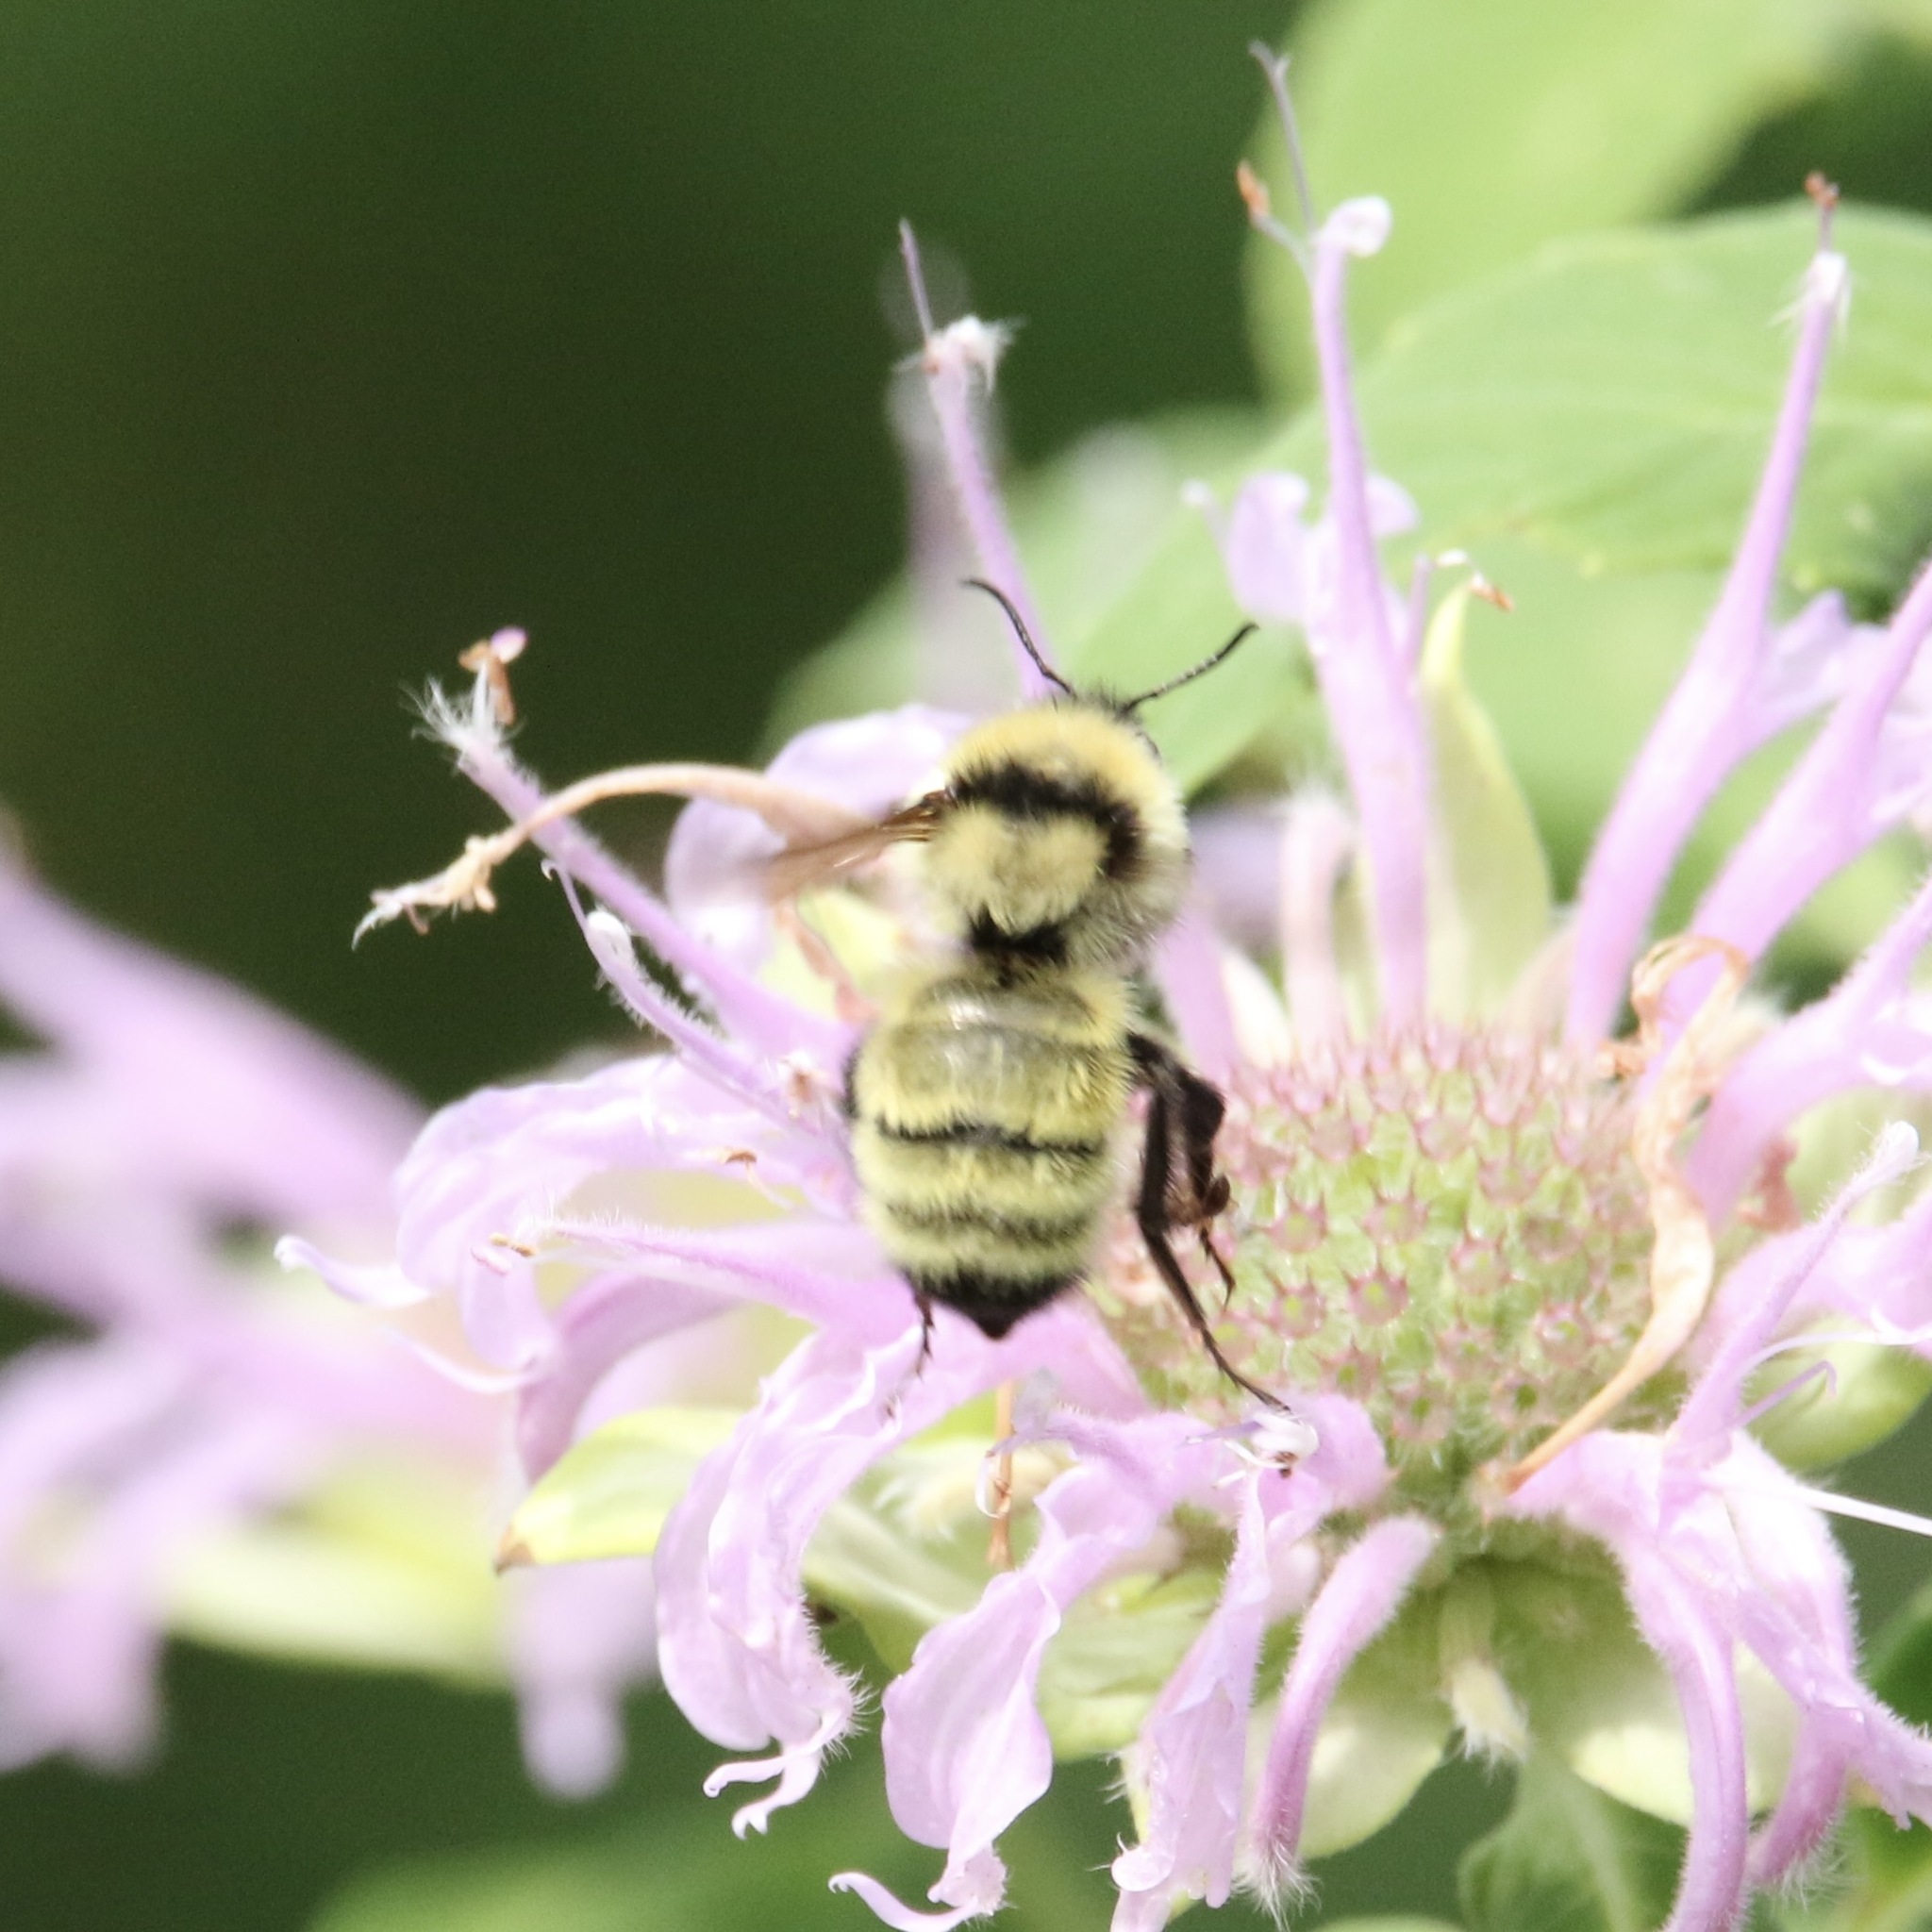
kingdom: Animalia
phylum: Arthropoda
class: Insecta
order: Hymenoptera
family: Apidae
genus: Bombus
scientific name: Bombus fervidus
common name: Yellow bumble bee
